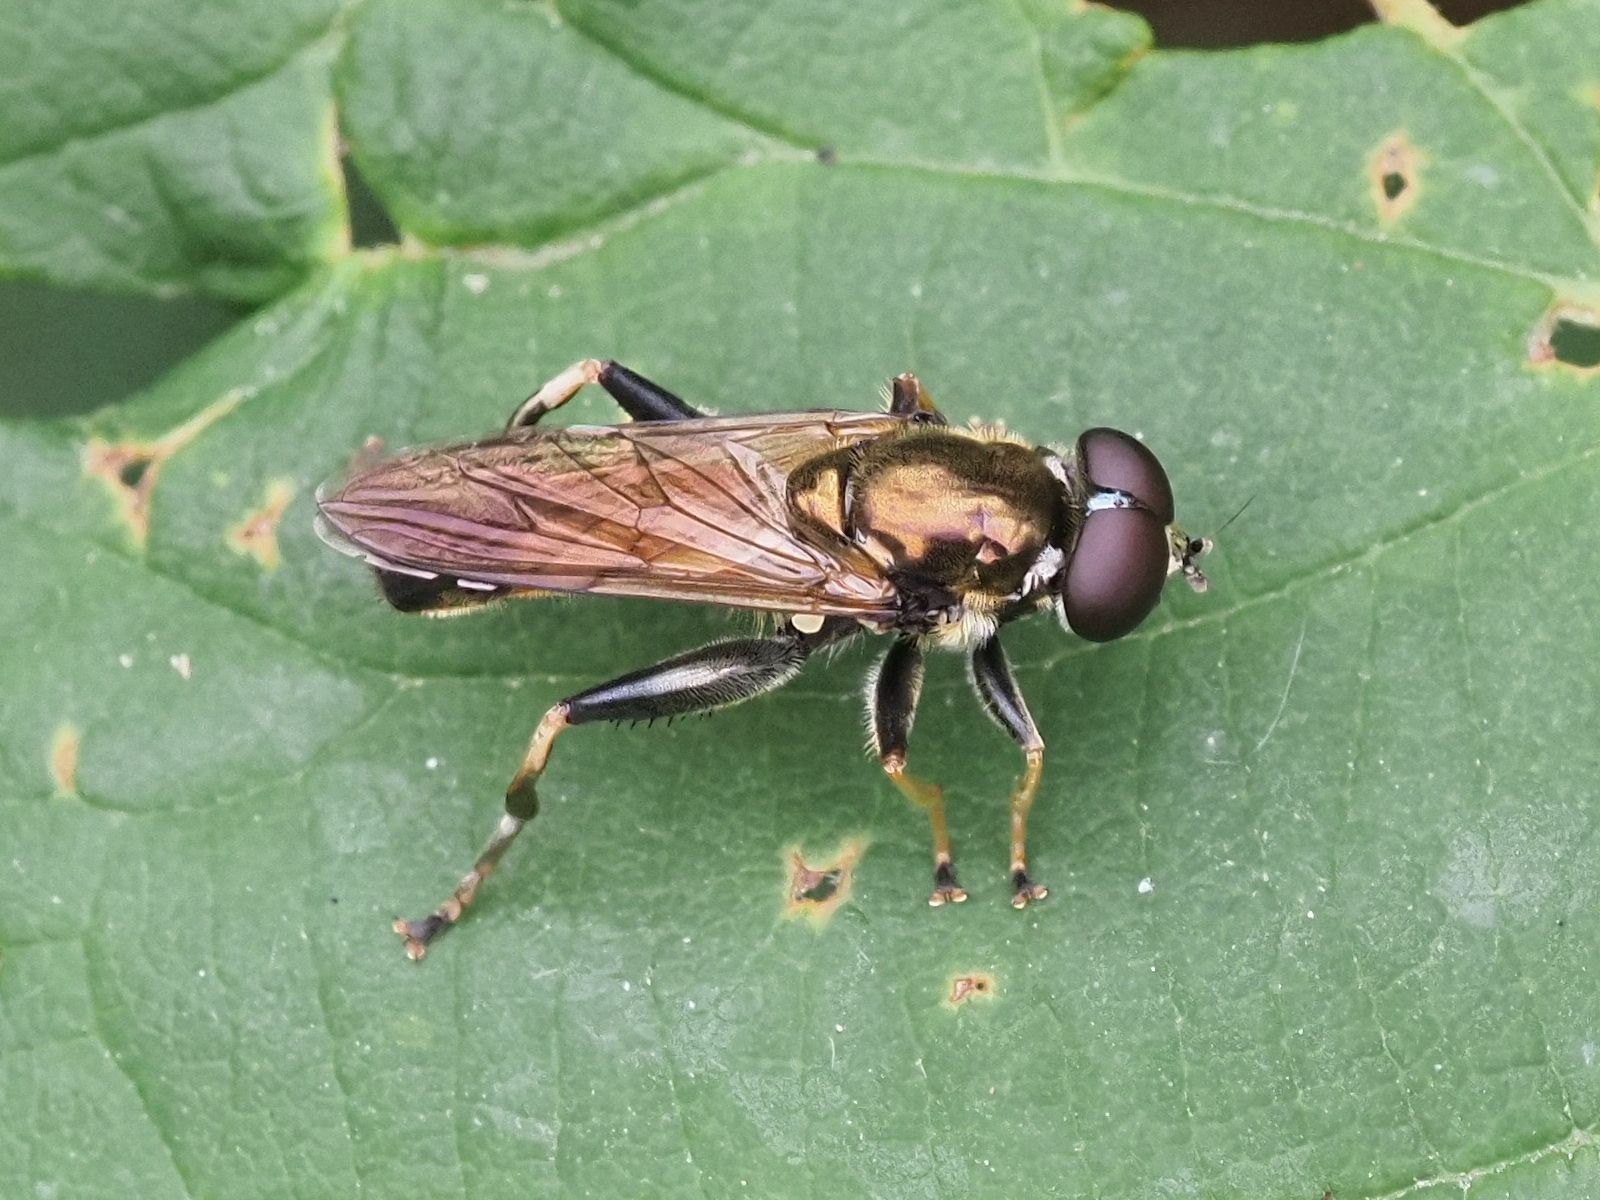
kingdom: Animalia
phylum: Arthropoda
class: Insecta
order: Diptera
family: Syrphidae
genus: Xylota
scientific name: Xylota segnis
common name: Brown-toed forest fly
